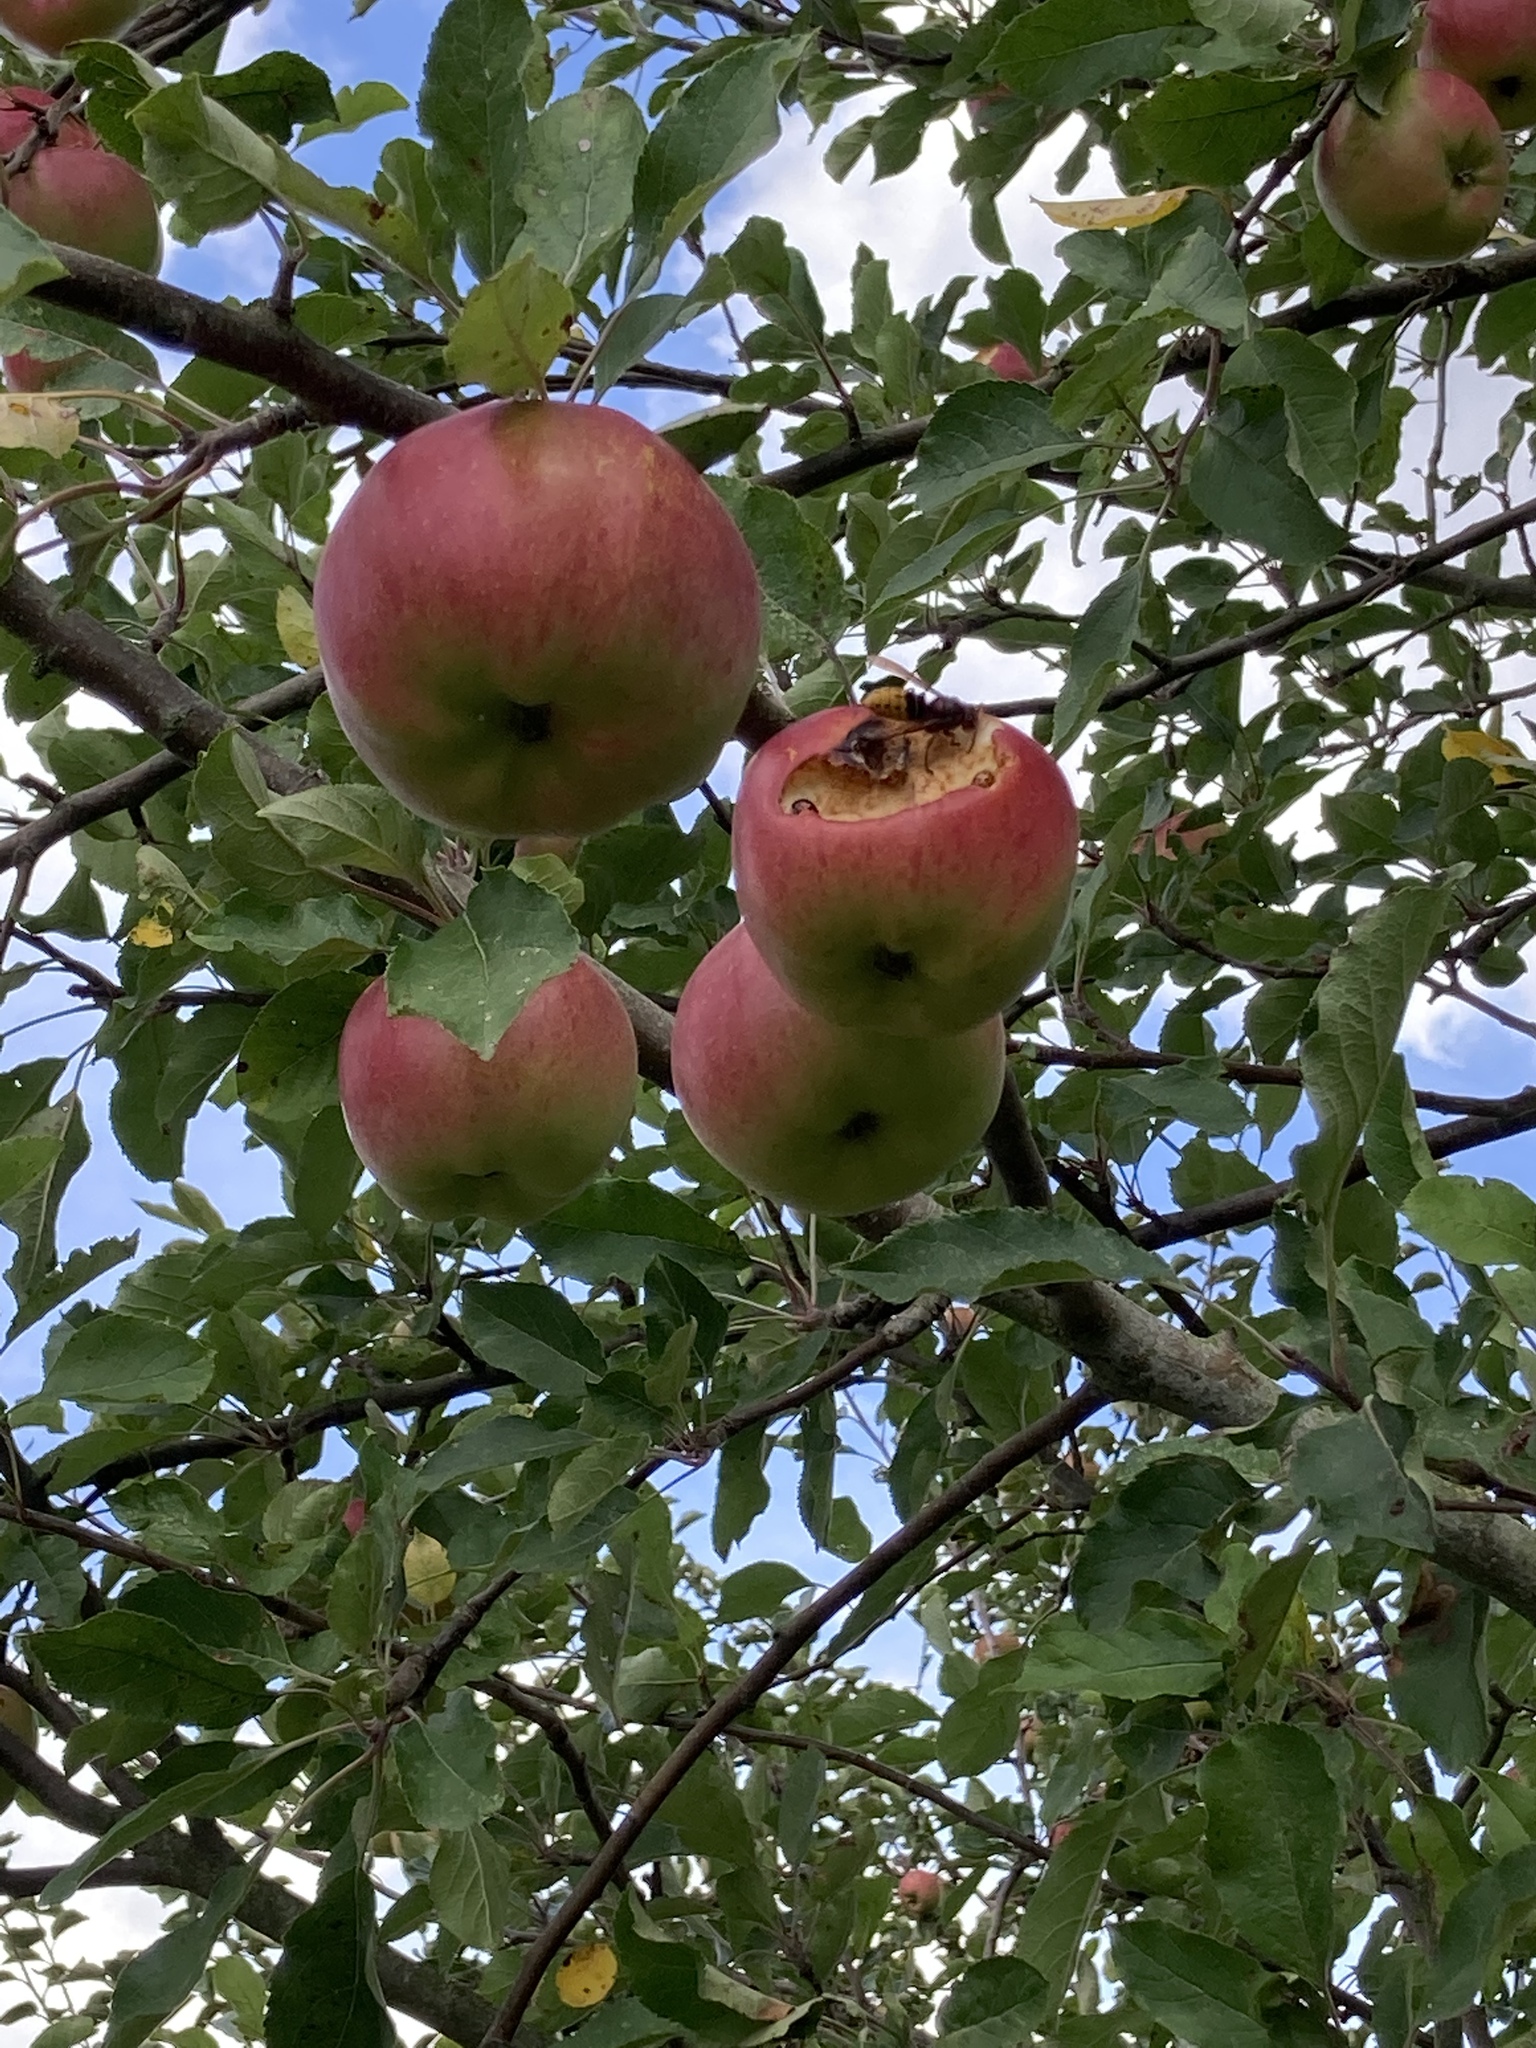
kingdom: Animalia
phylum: Arthropoda
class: Insecta
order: Hymenoptera
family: Vespidae
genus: Vespa
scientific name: Vespa crabro
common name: Hornet
